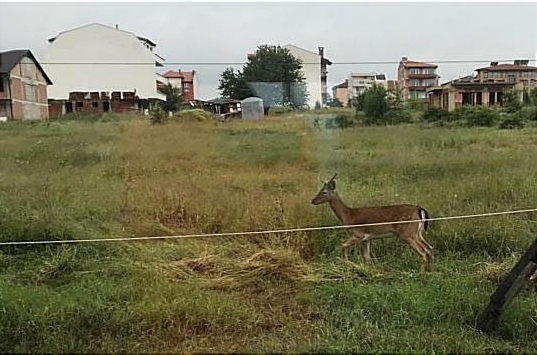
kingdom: Animalia
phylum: Chordata
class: Mammalia
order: Artiodactyla
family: Cervidae
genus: Dama
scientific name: Dama dama
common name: Fallow deer
